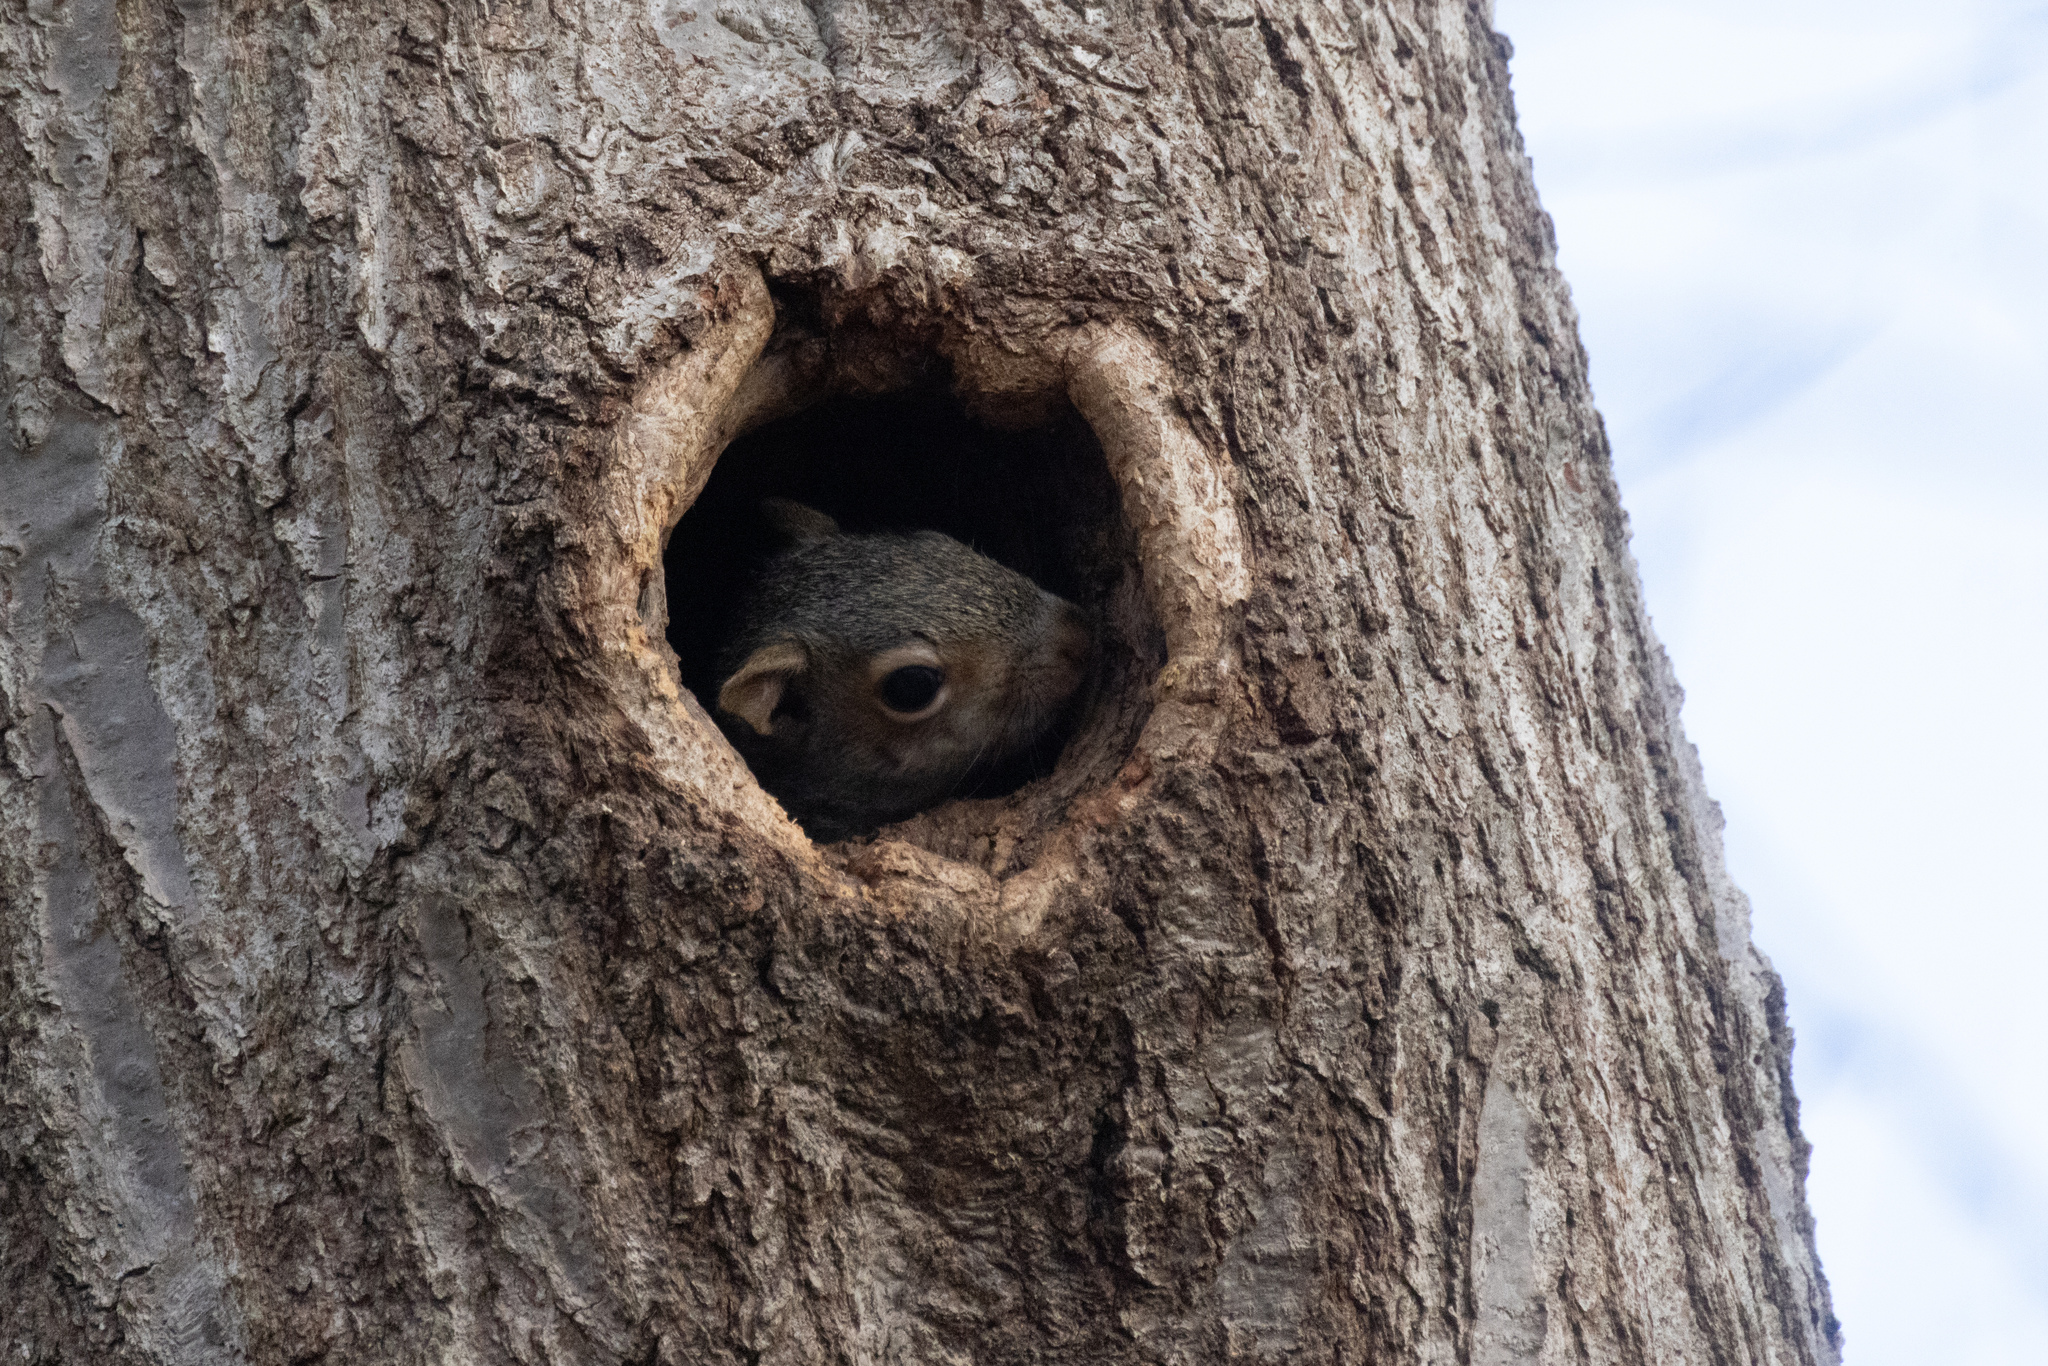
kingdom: Animalia
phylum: Chordata
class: Mammalia
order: Rodentia
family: Sciuridae
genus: Sciurus
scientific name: Sciurus carolinensis
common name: Eastern gray squirrel
